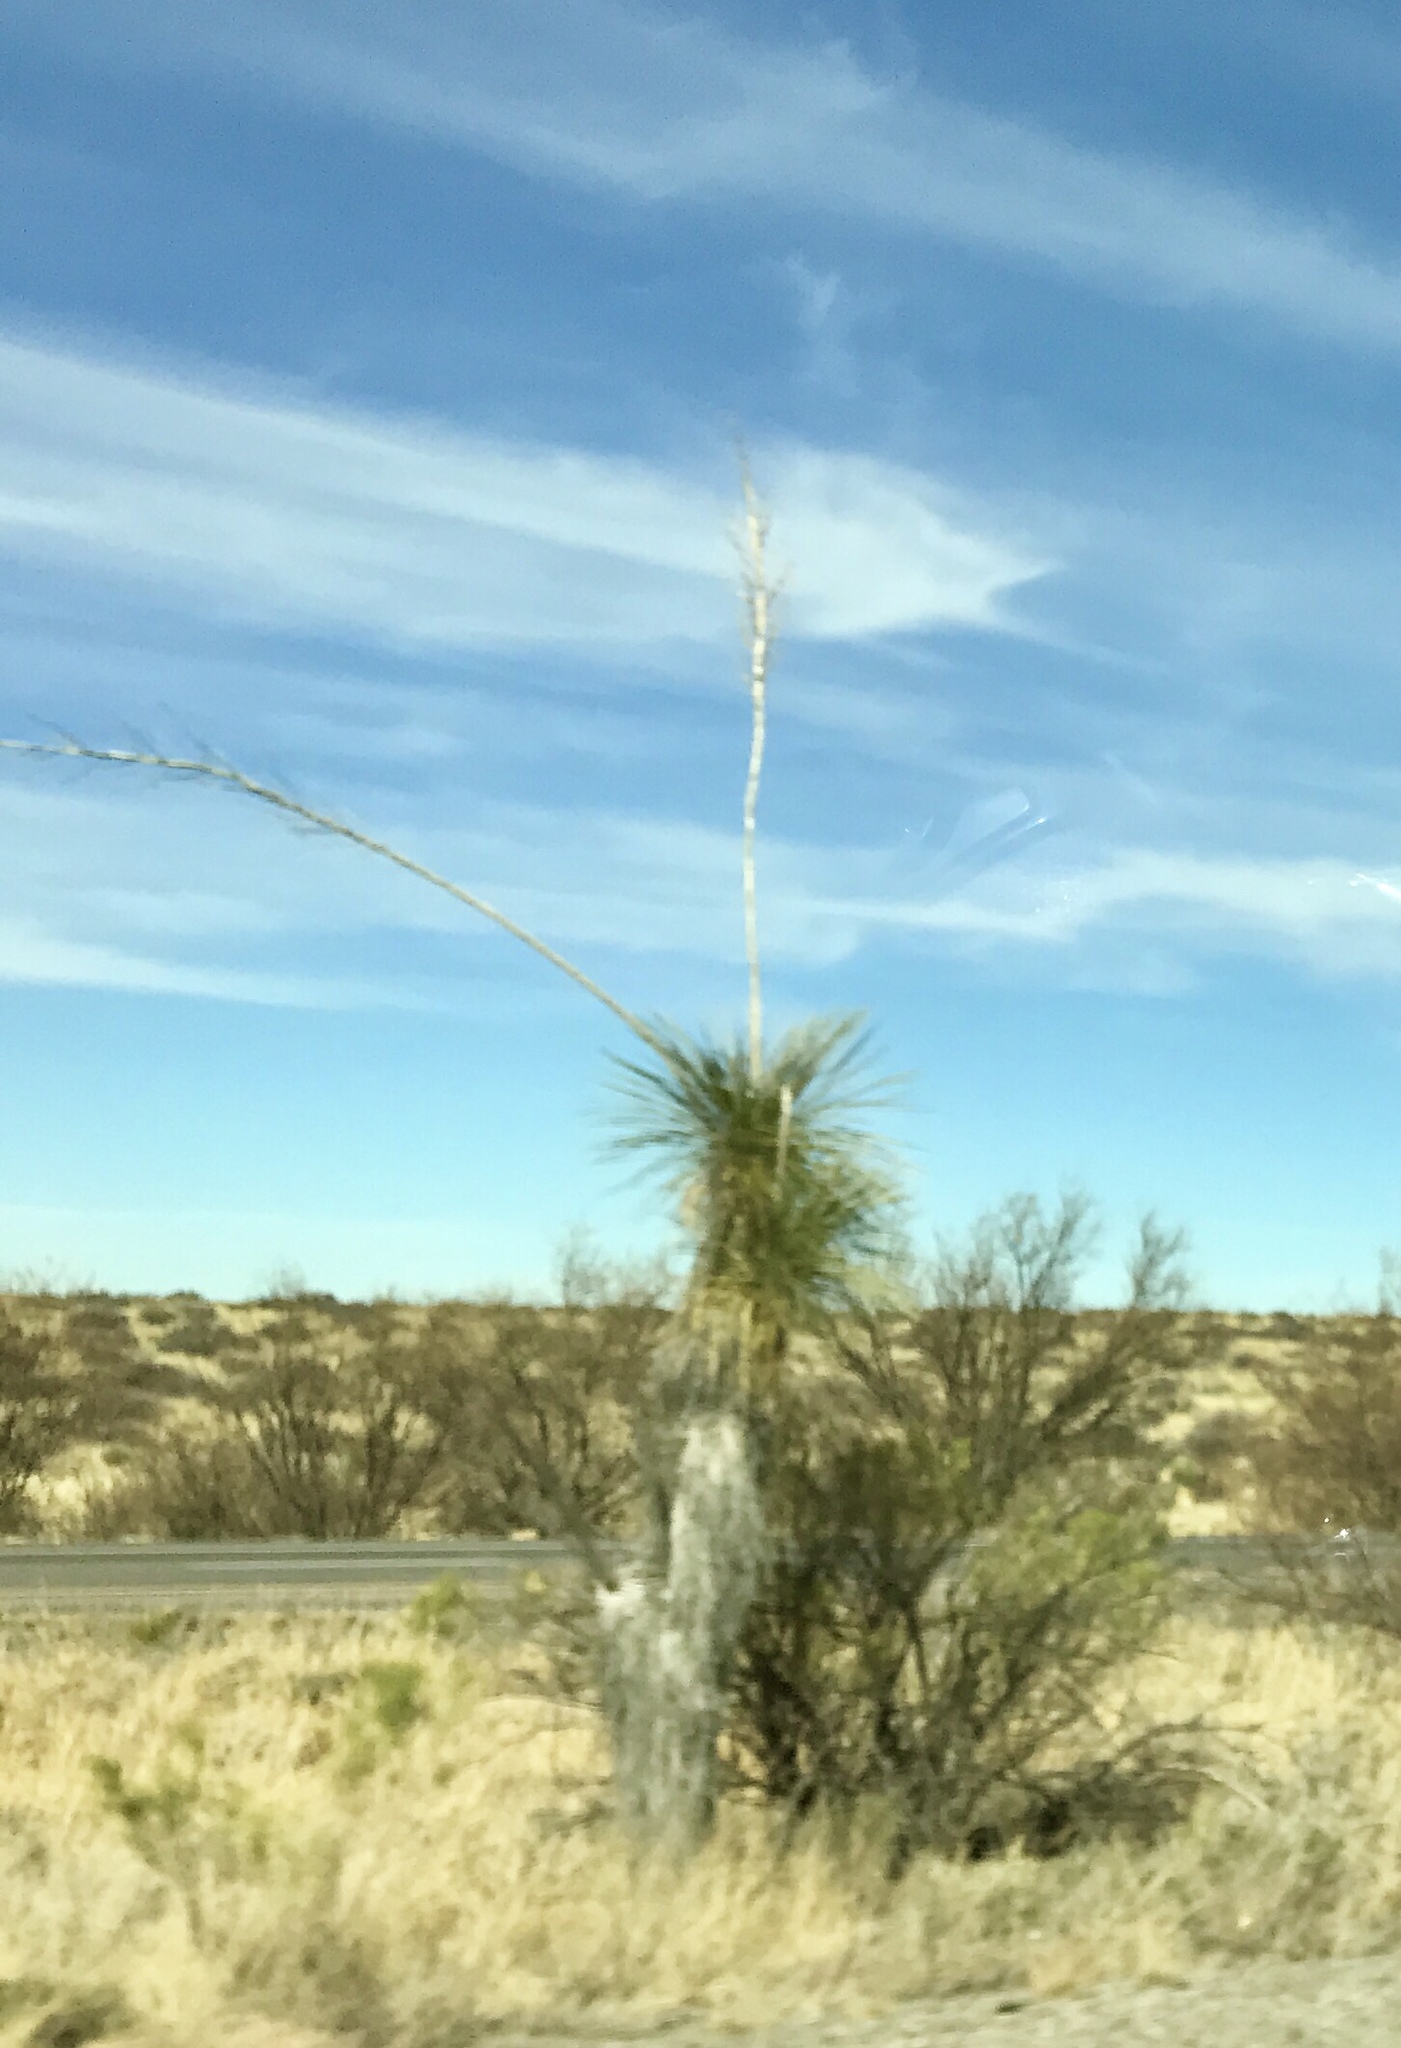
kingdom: Plantae
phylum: Tracheophyta
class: Liliopsida
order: Asparagales
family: Asparagaceae
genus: Yucca
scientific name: Yucca elata
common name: Palmella
